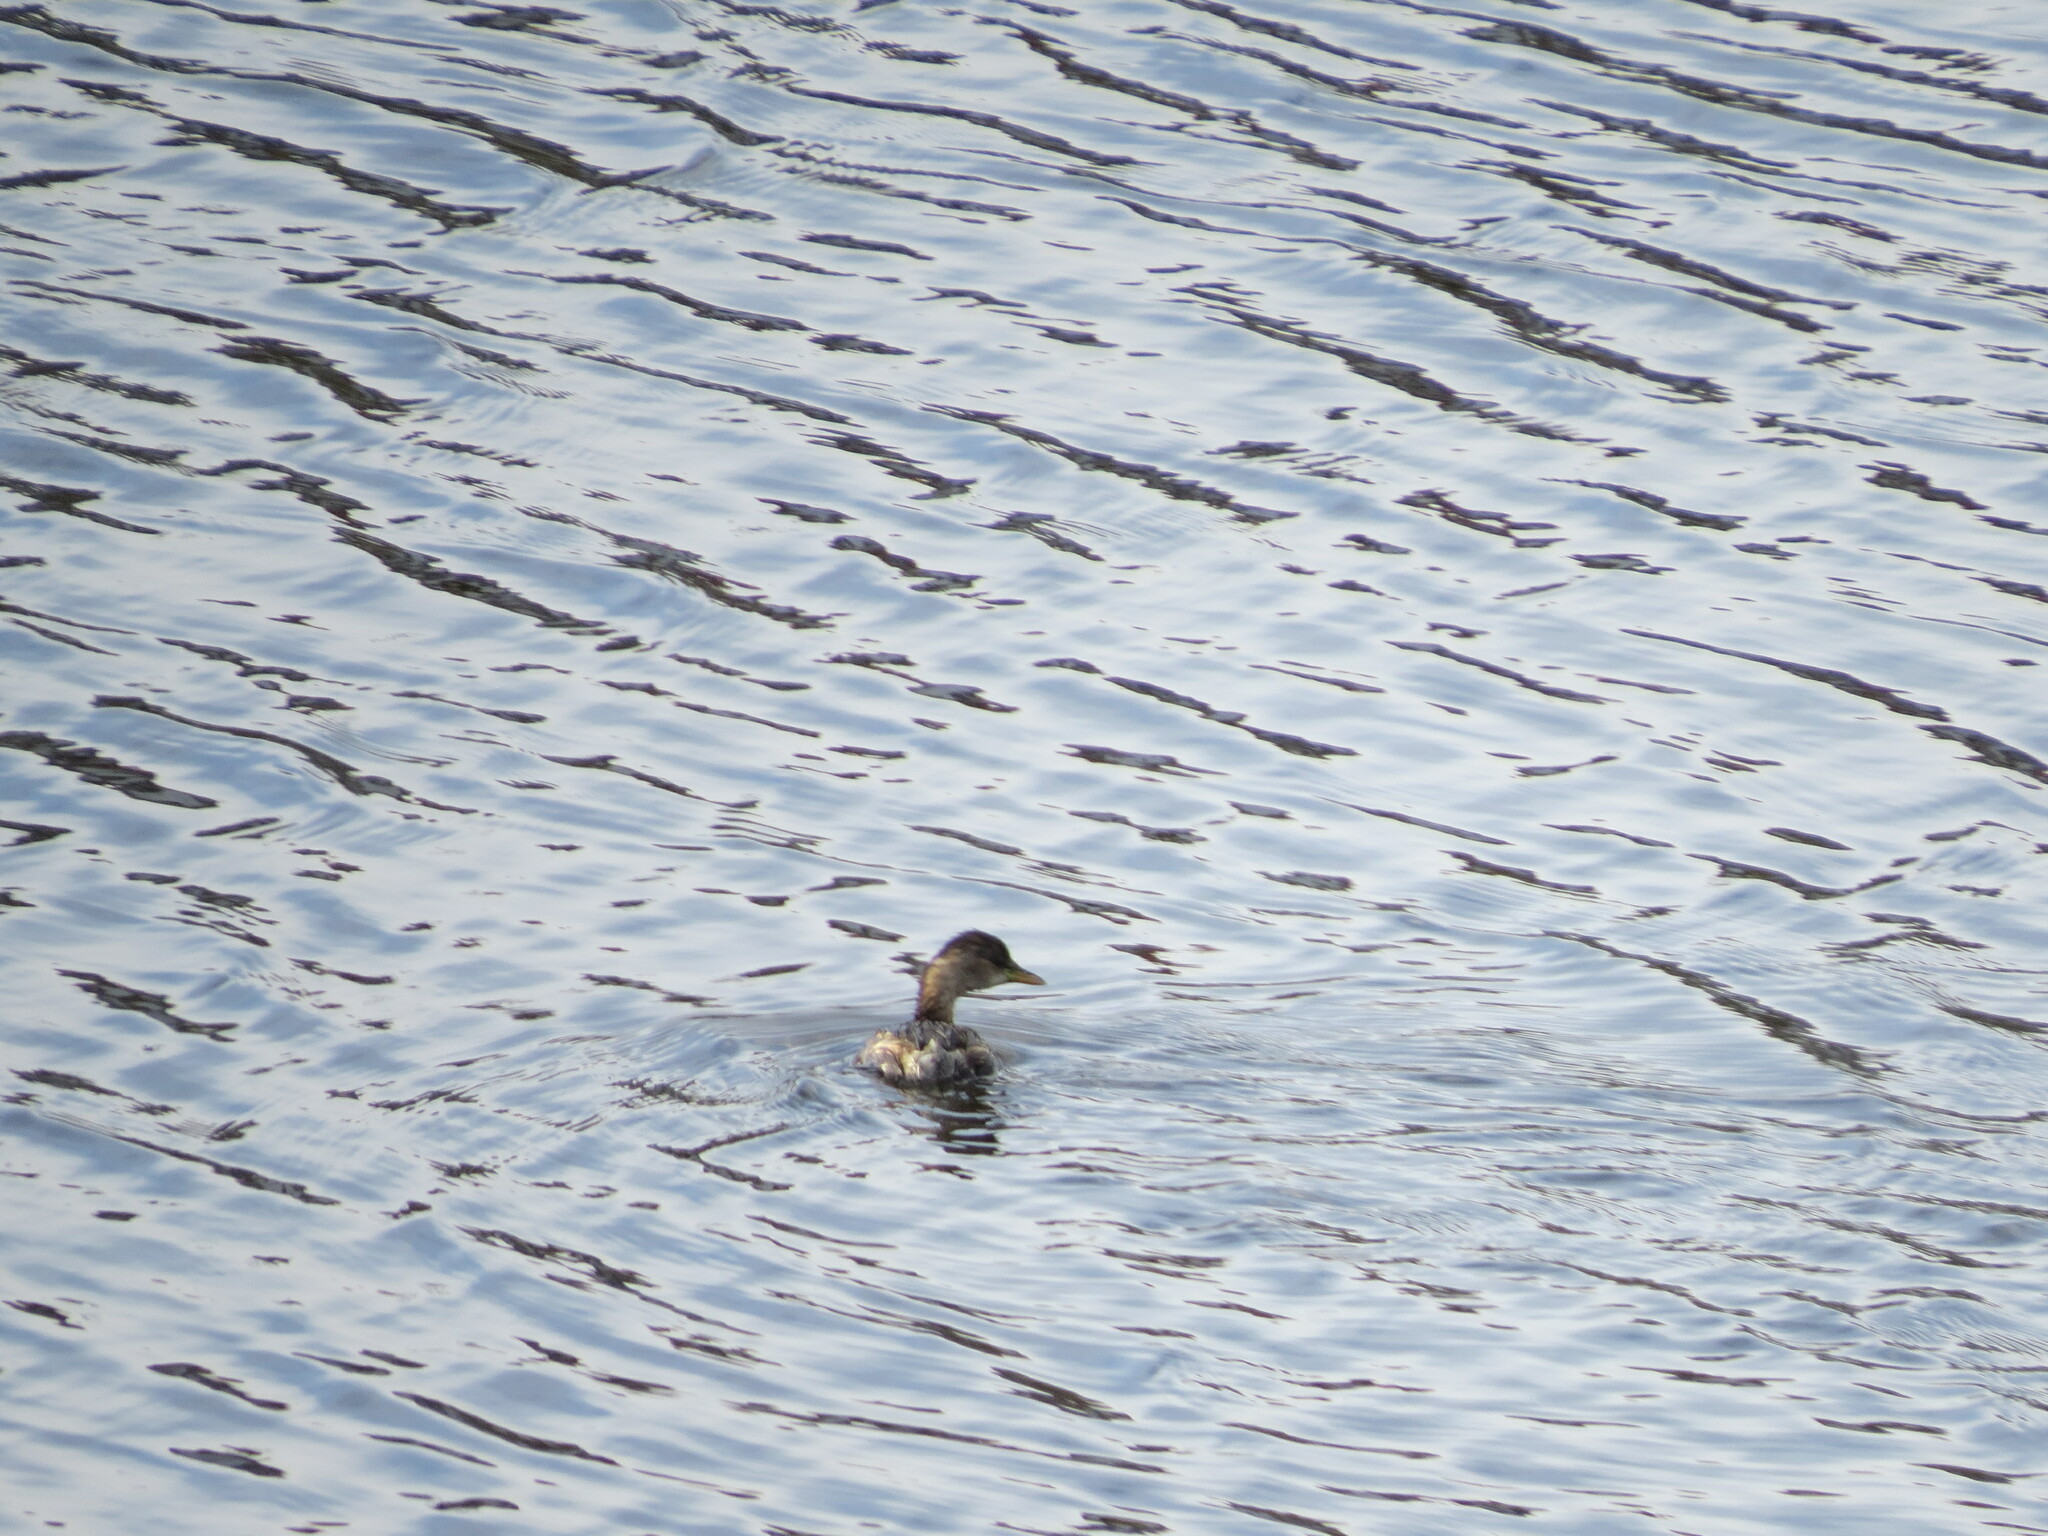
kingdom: Animalia
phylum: Chordata
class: Aves
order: Podicipediformes
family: Podicipedidae
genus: Tachybaptus
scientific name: Tachybaptus ruficollis
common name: Little grebe
